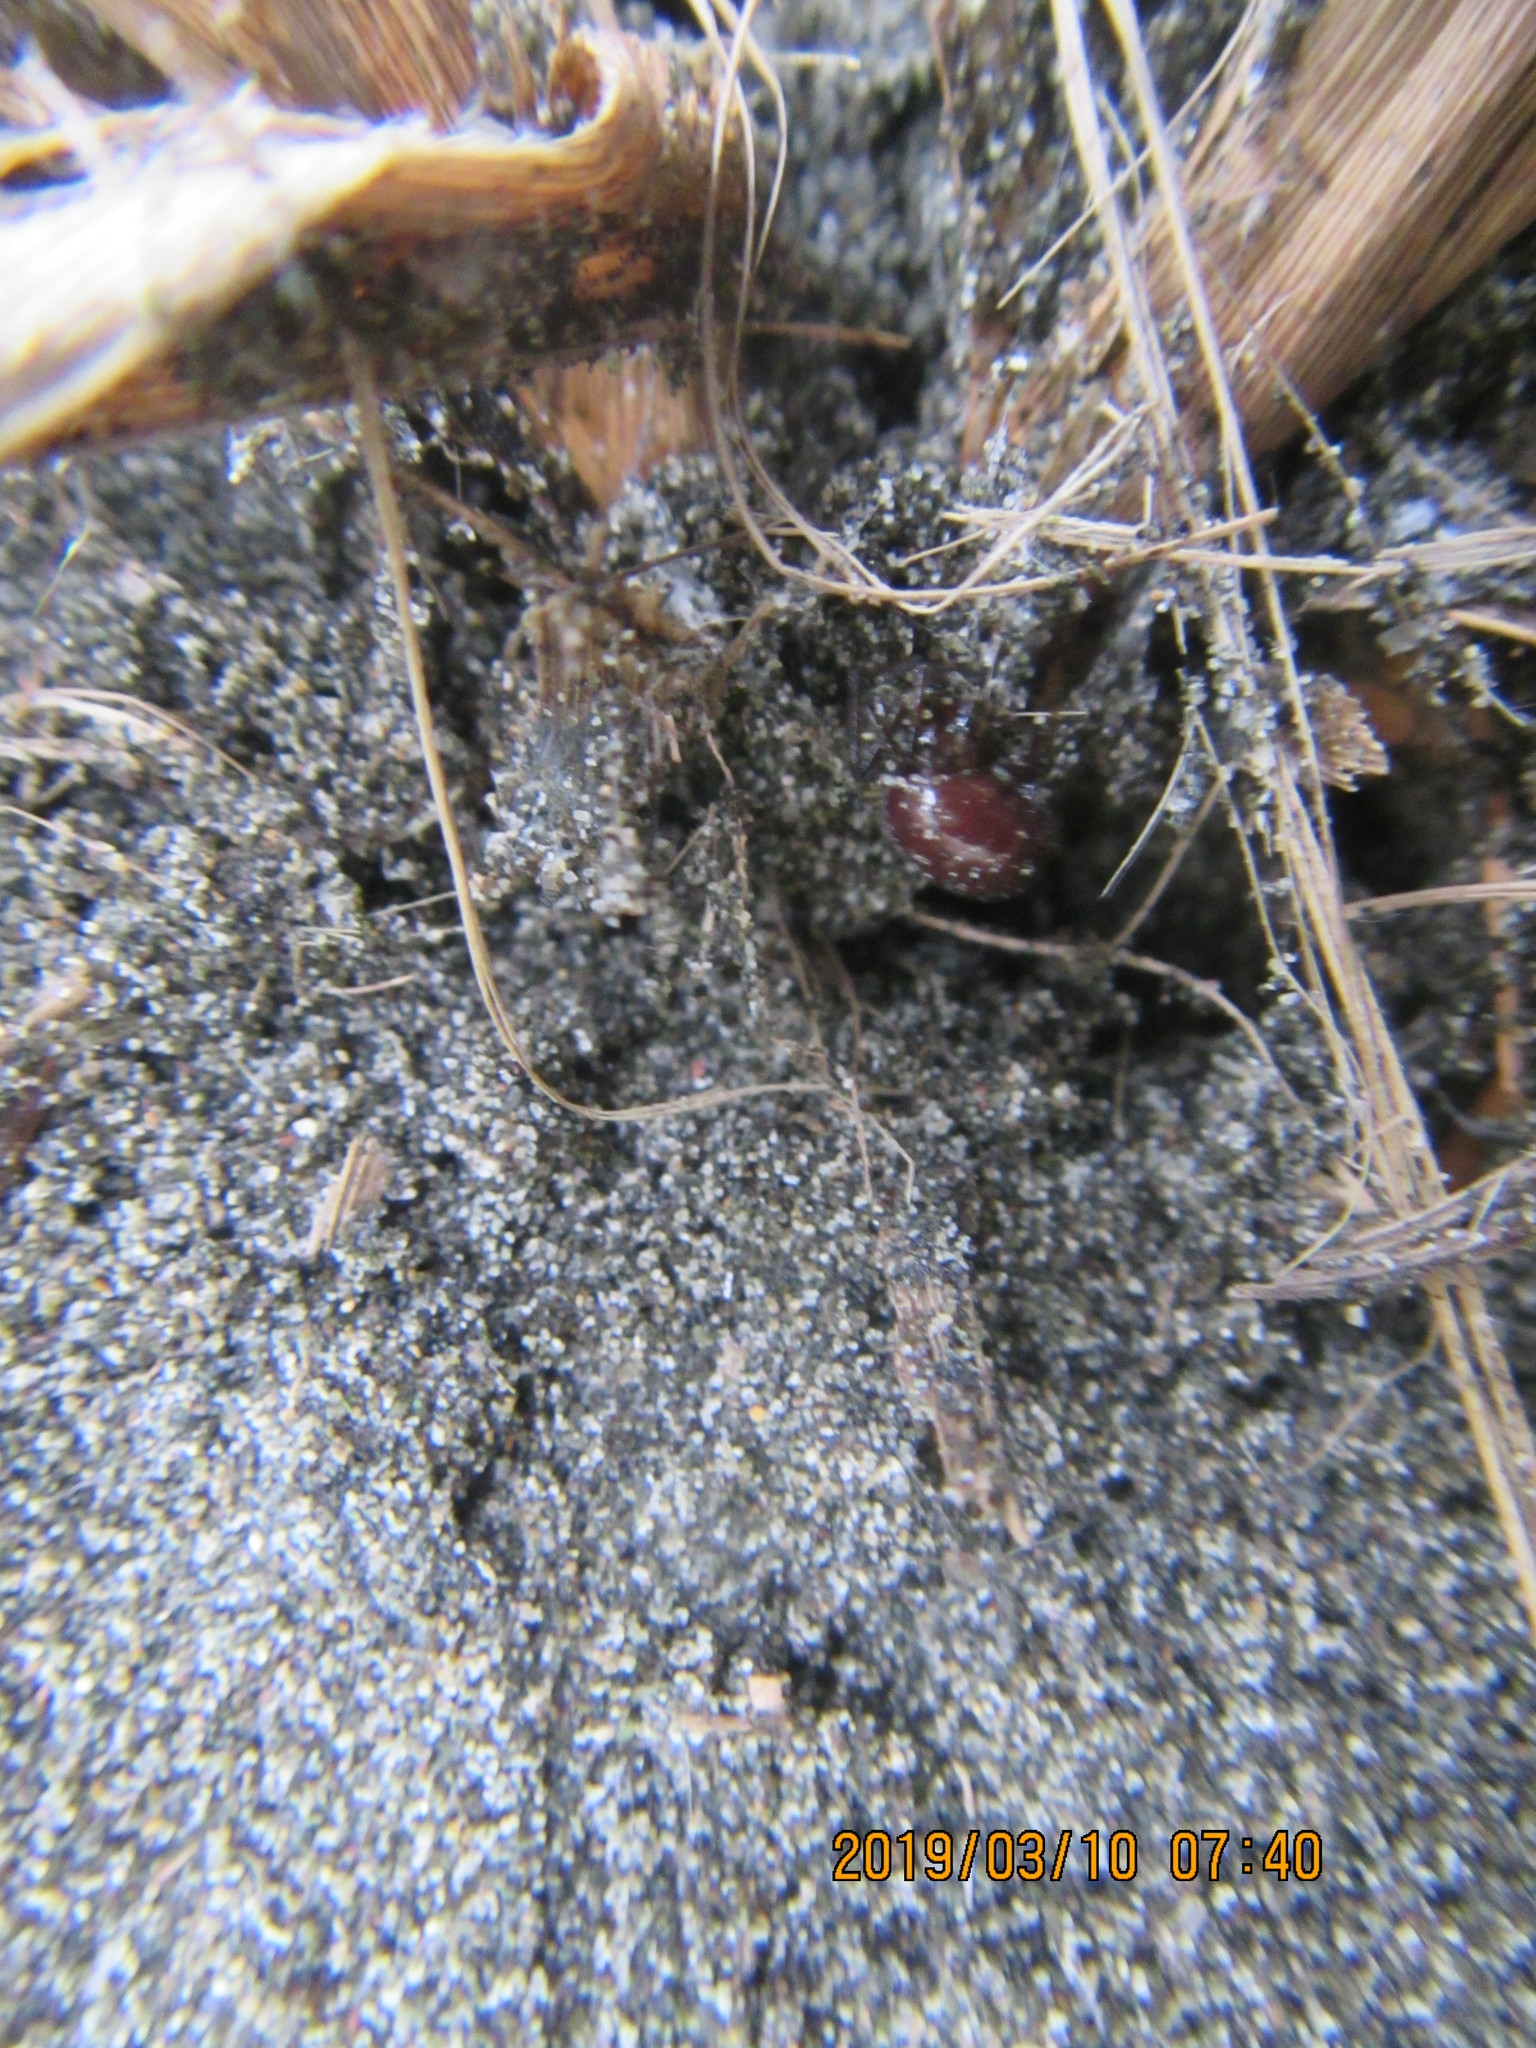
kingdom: Animalia
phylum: Arthropoda
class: Arachnida
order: Araneae
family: Theridiidae
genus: Steatoda
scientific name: Steatoda capensis
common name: Cobweb weaver
